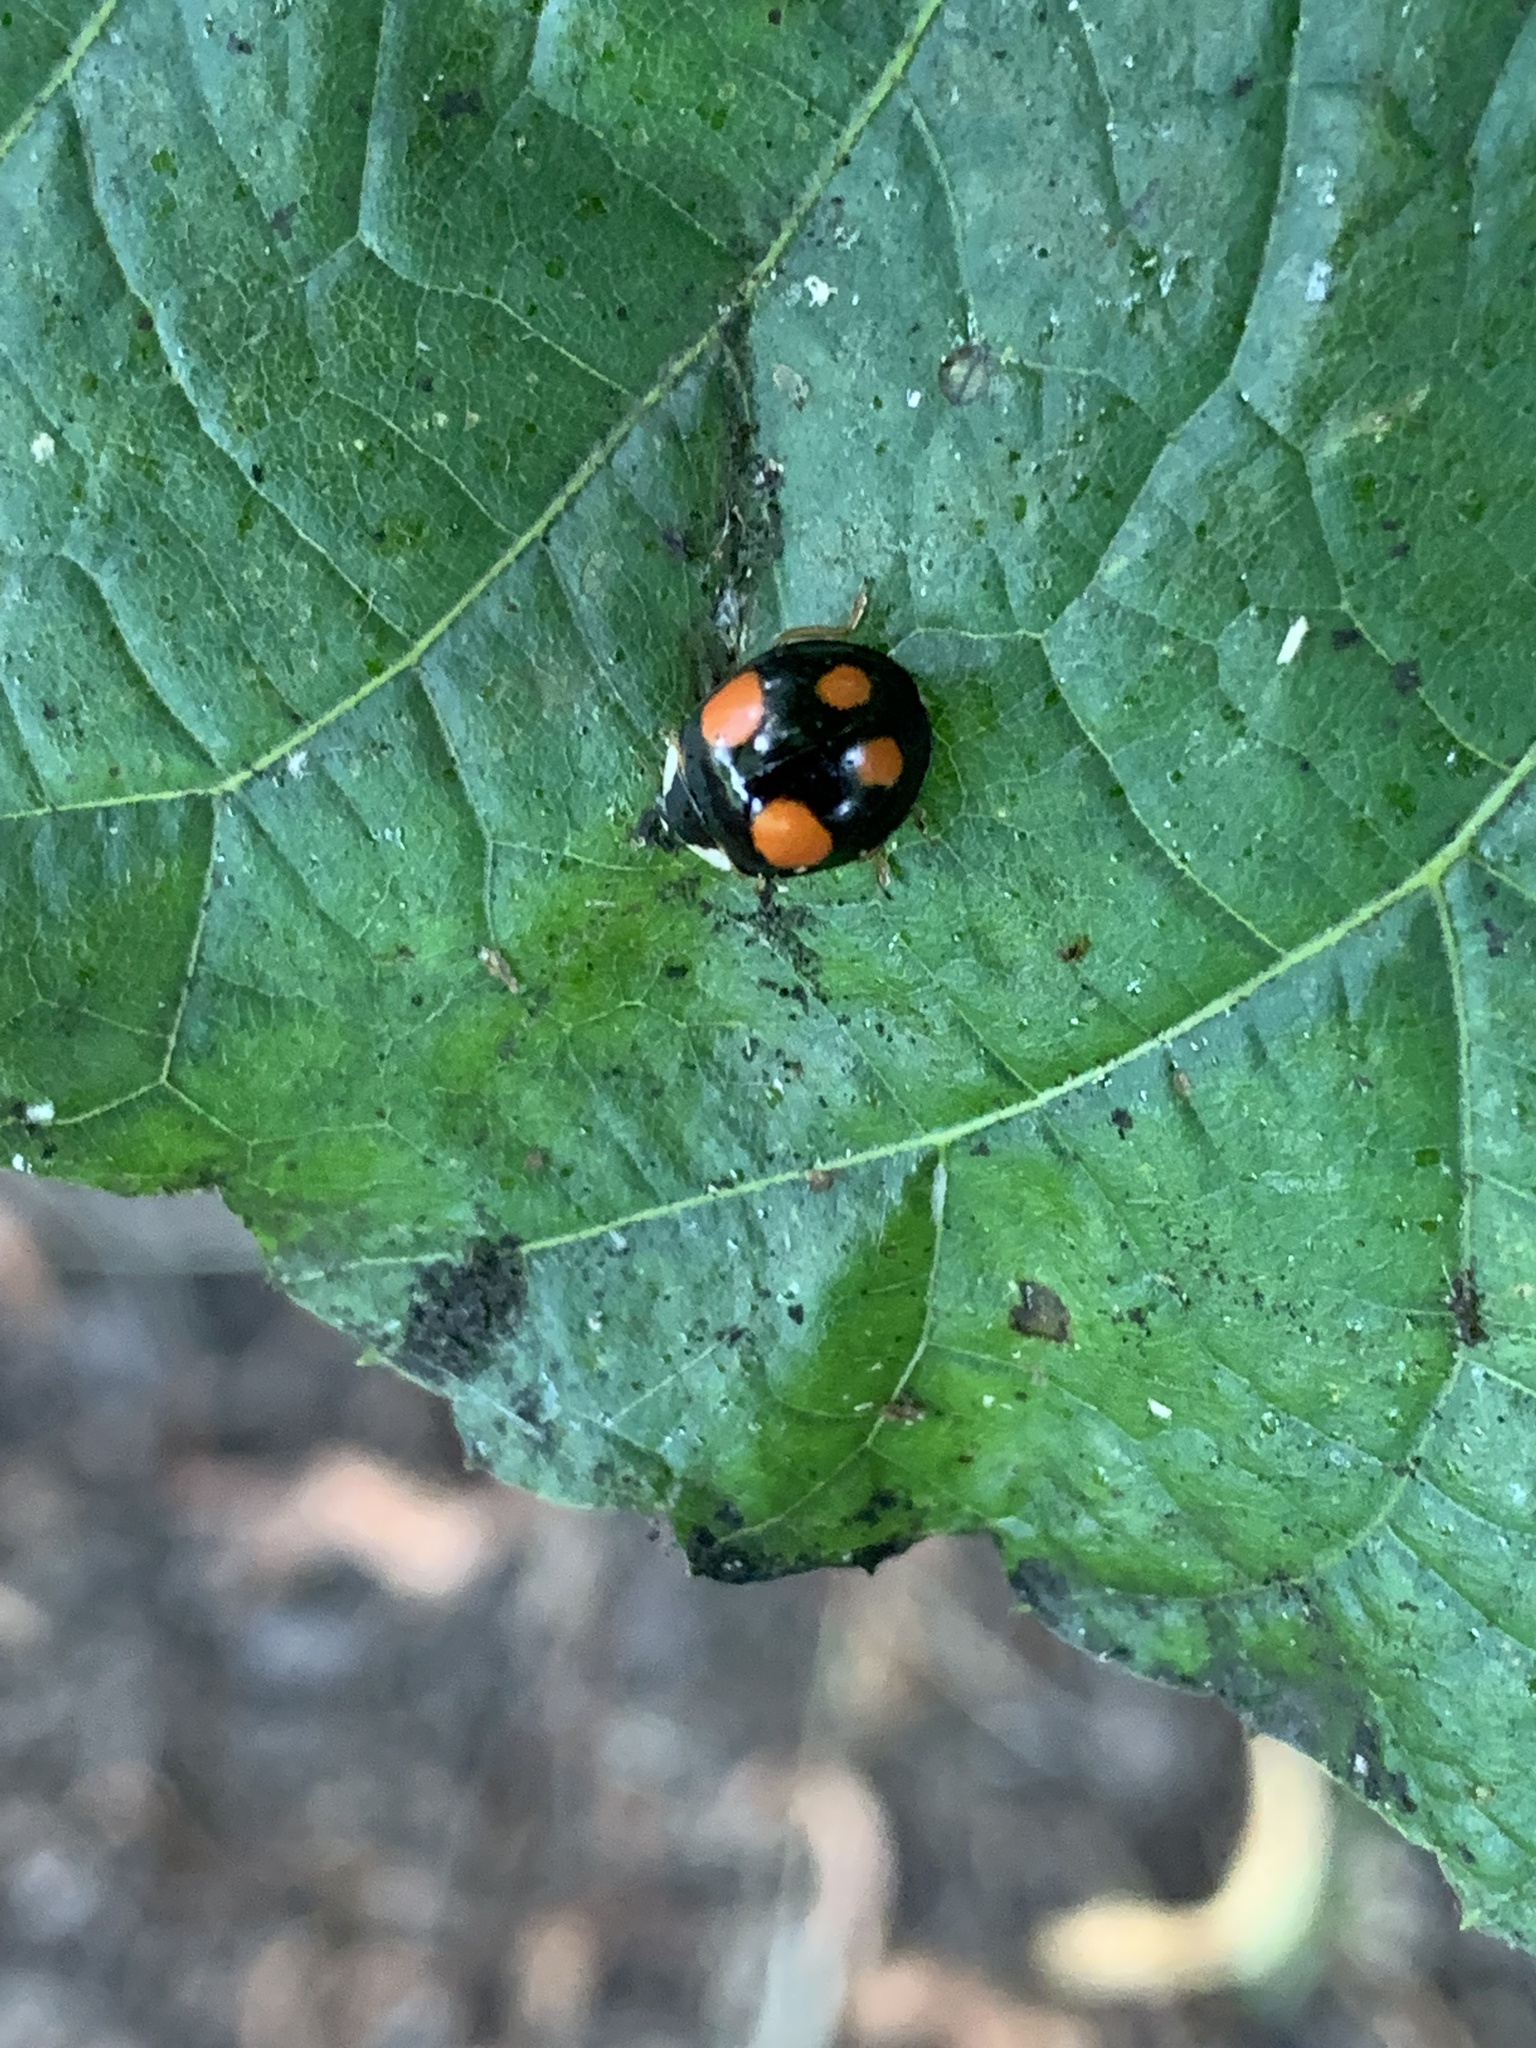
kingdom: Animalia
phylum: Arthropoda
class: Insecta
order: Coleoptera
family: Coccinellidae
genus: Harmonia
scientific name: Harmonia axyridis
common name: Harlequin ladybird
